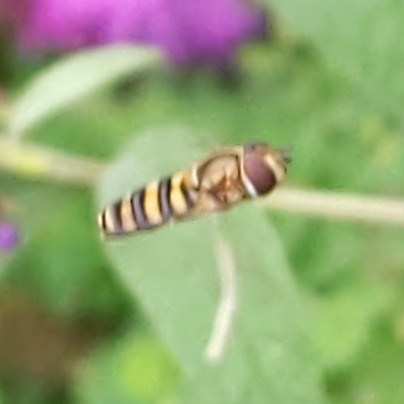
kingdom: Animalia
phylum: Arthropoda
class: Insecta
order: Diptera
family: Syrphidae
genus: Eupeodes
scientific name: Eupeodes
